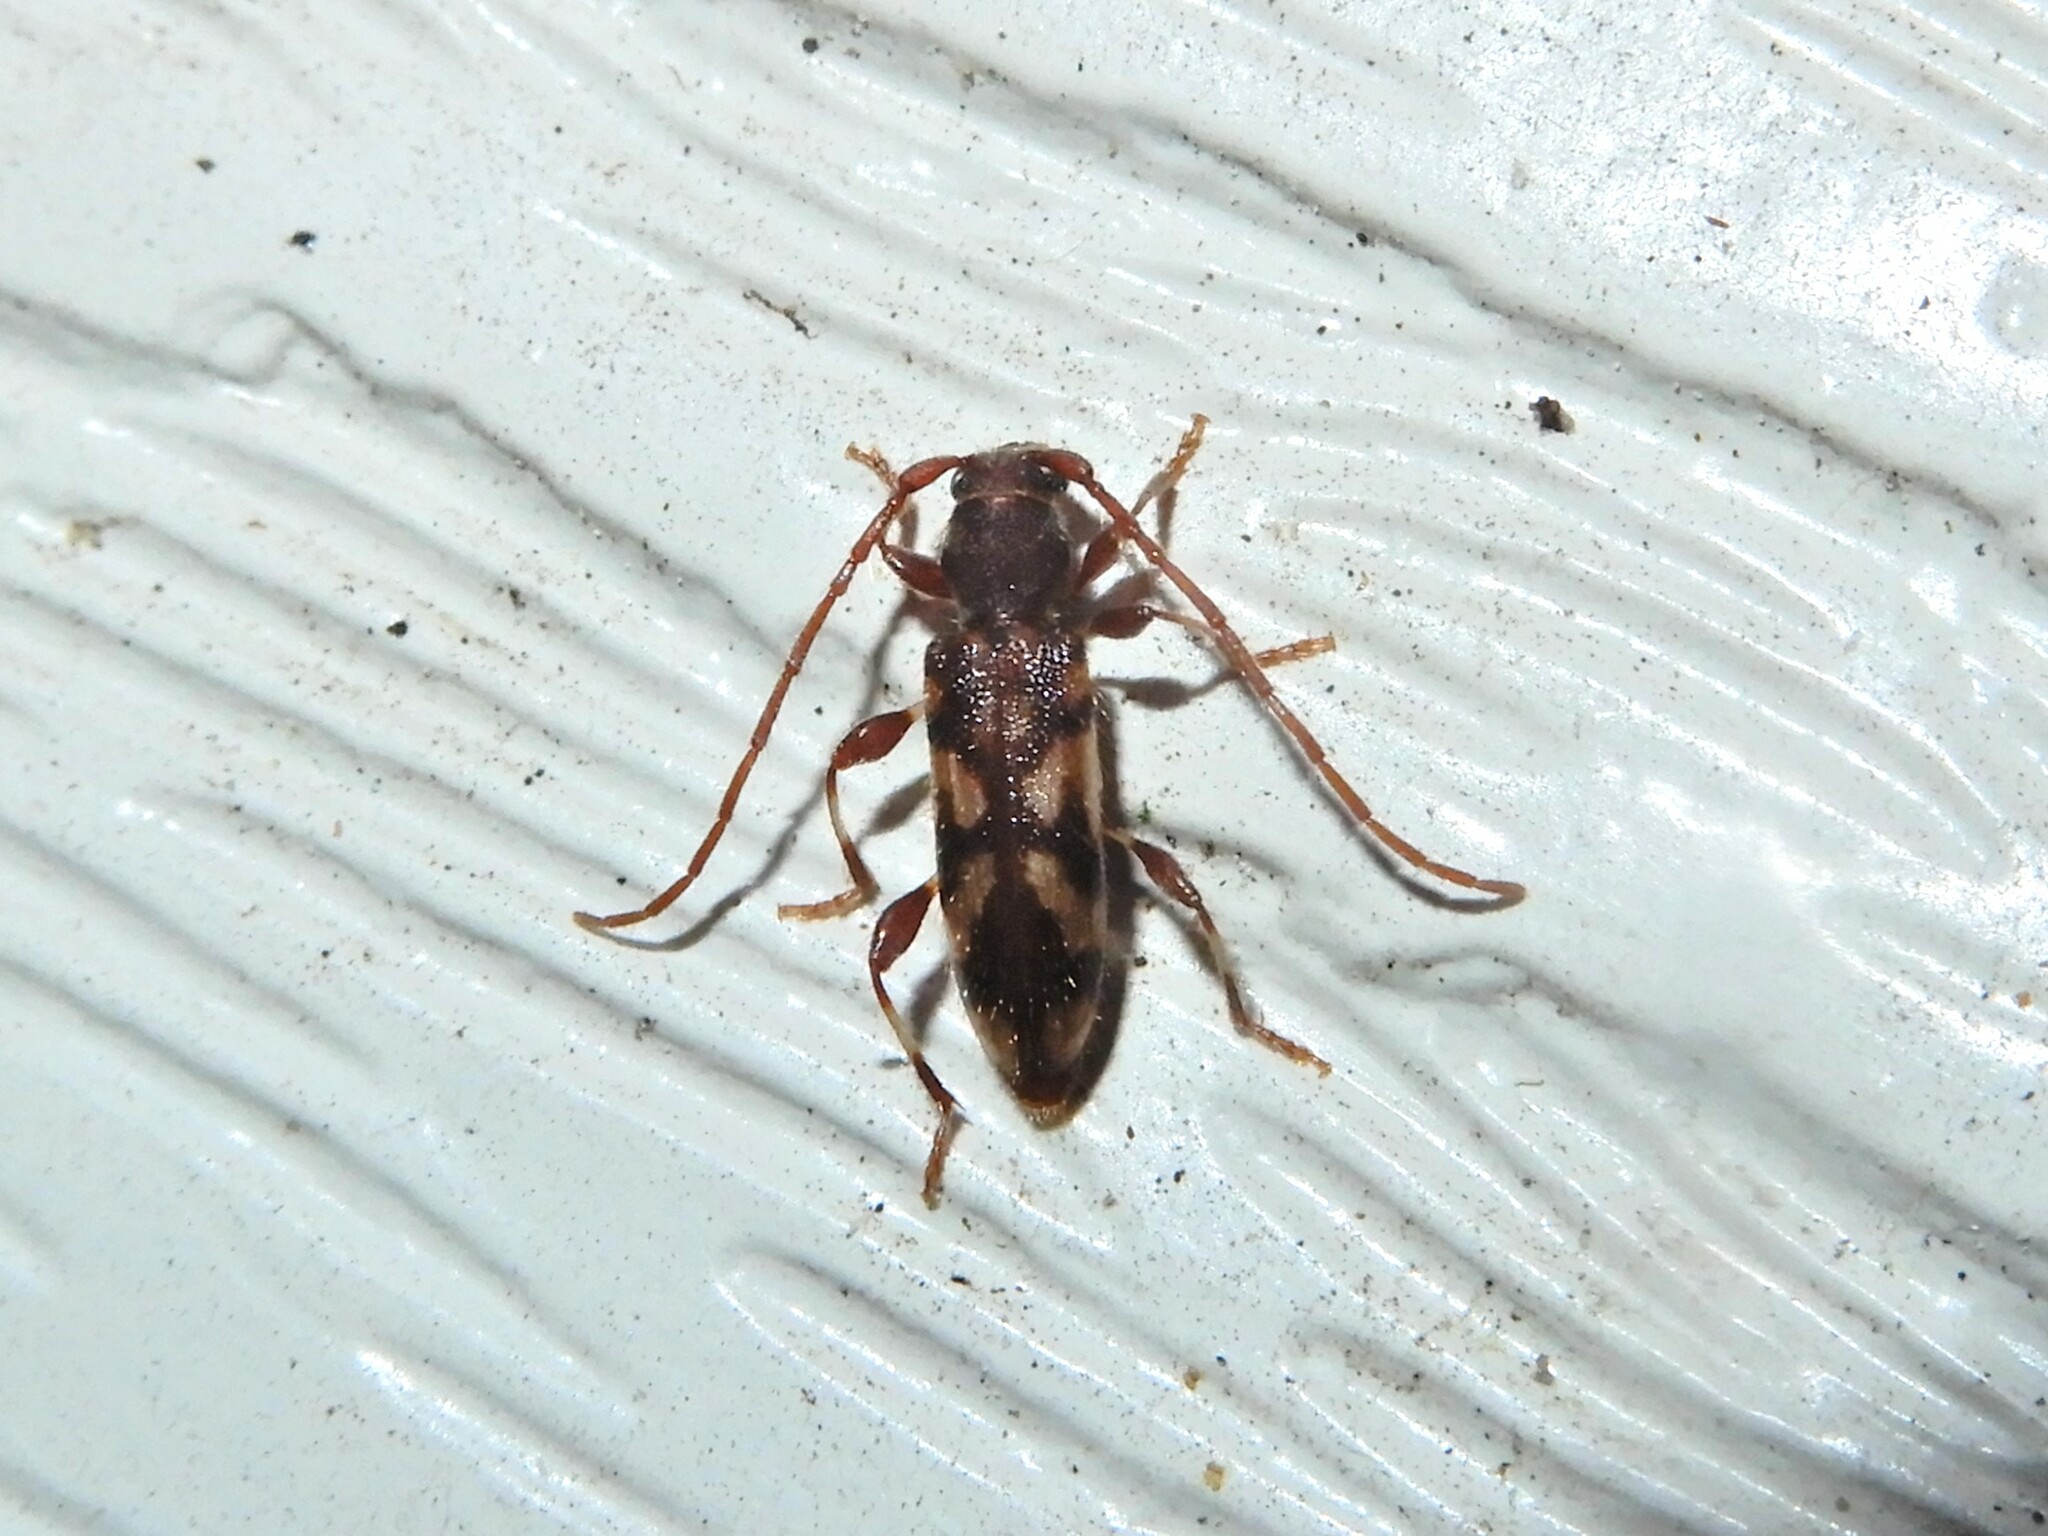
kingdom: Animalia
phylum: Arthropoda
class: Insecta
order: Coleoptera
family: Cerambycidae
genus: Bethelium
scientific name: Bethelium signiferum
